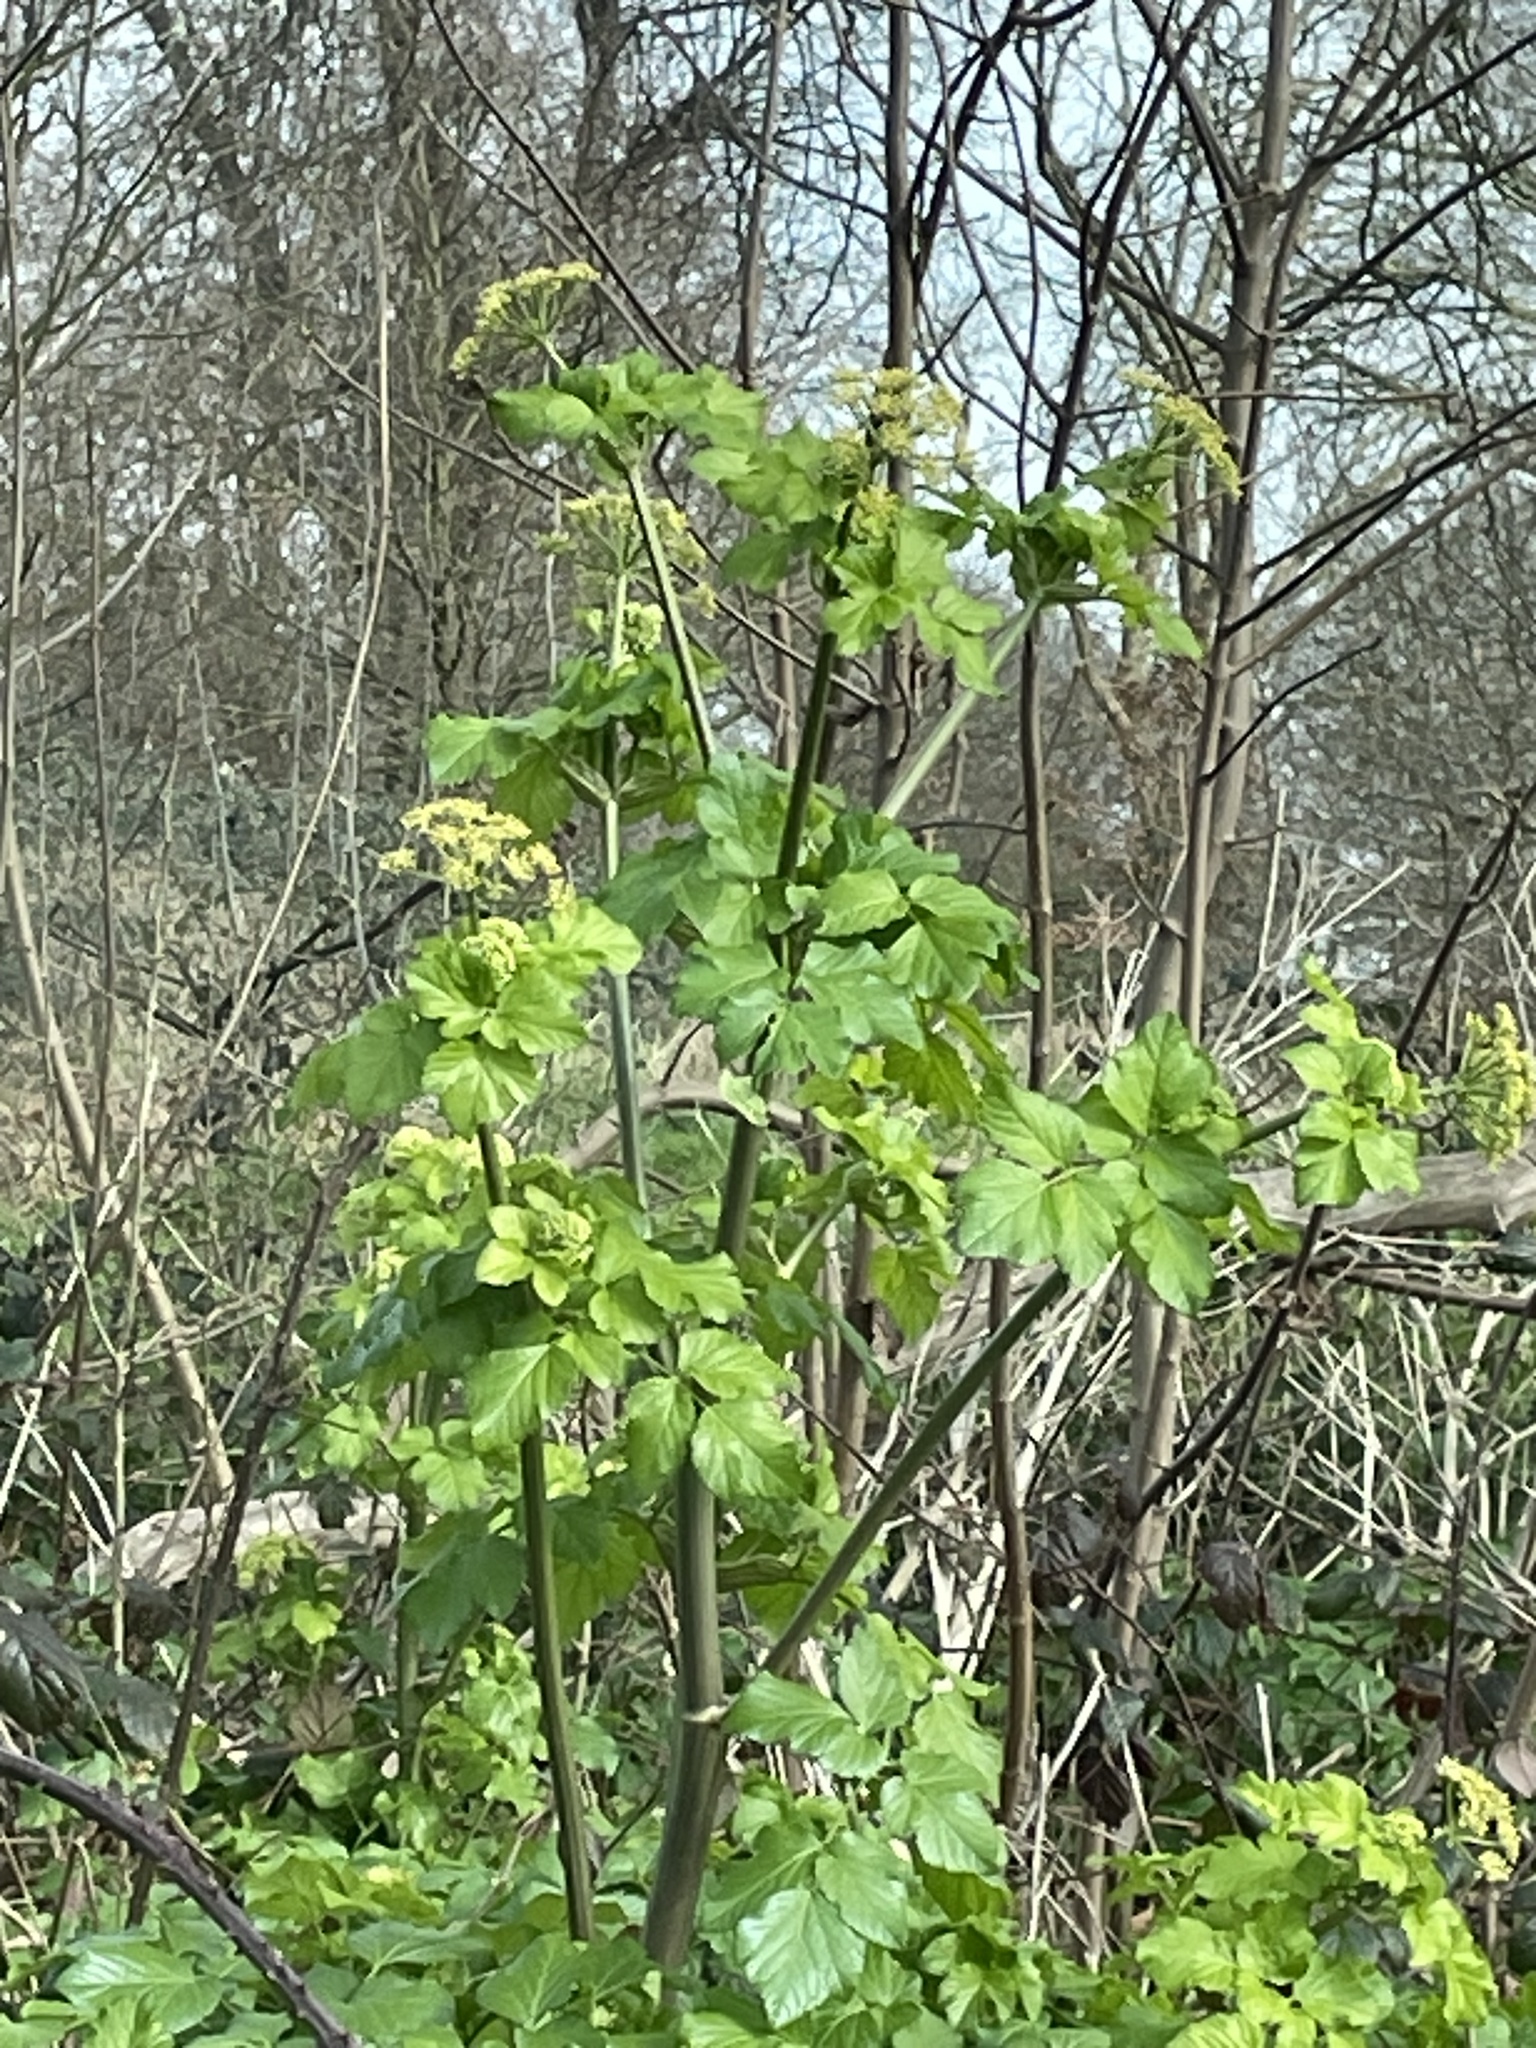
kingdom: Plantae
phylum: Tracheophyta
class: Magnoliopsida
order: Apiales
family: Apiaceae
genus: Smyrnium
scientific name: Smyrnium olusatrum
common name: Alexanders
